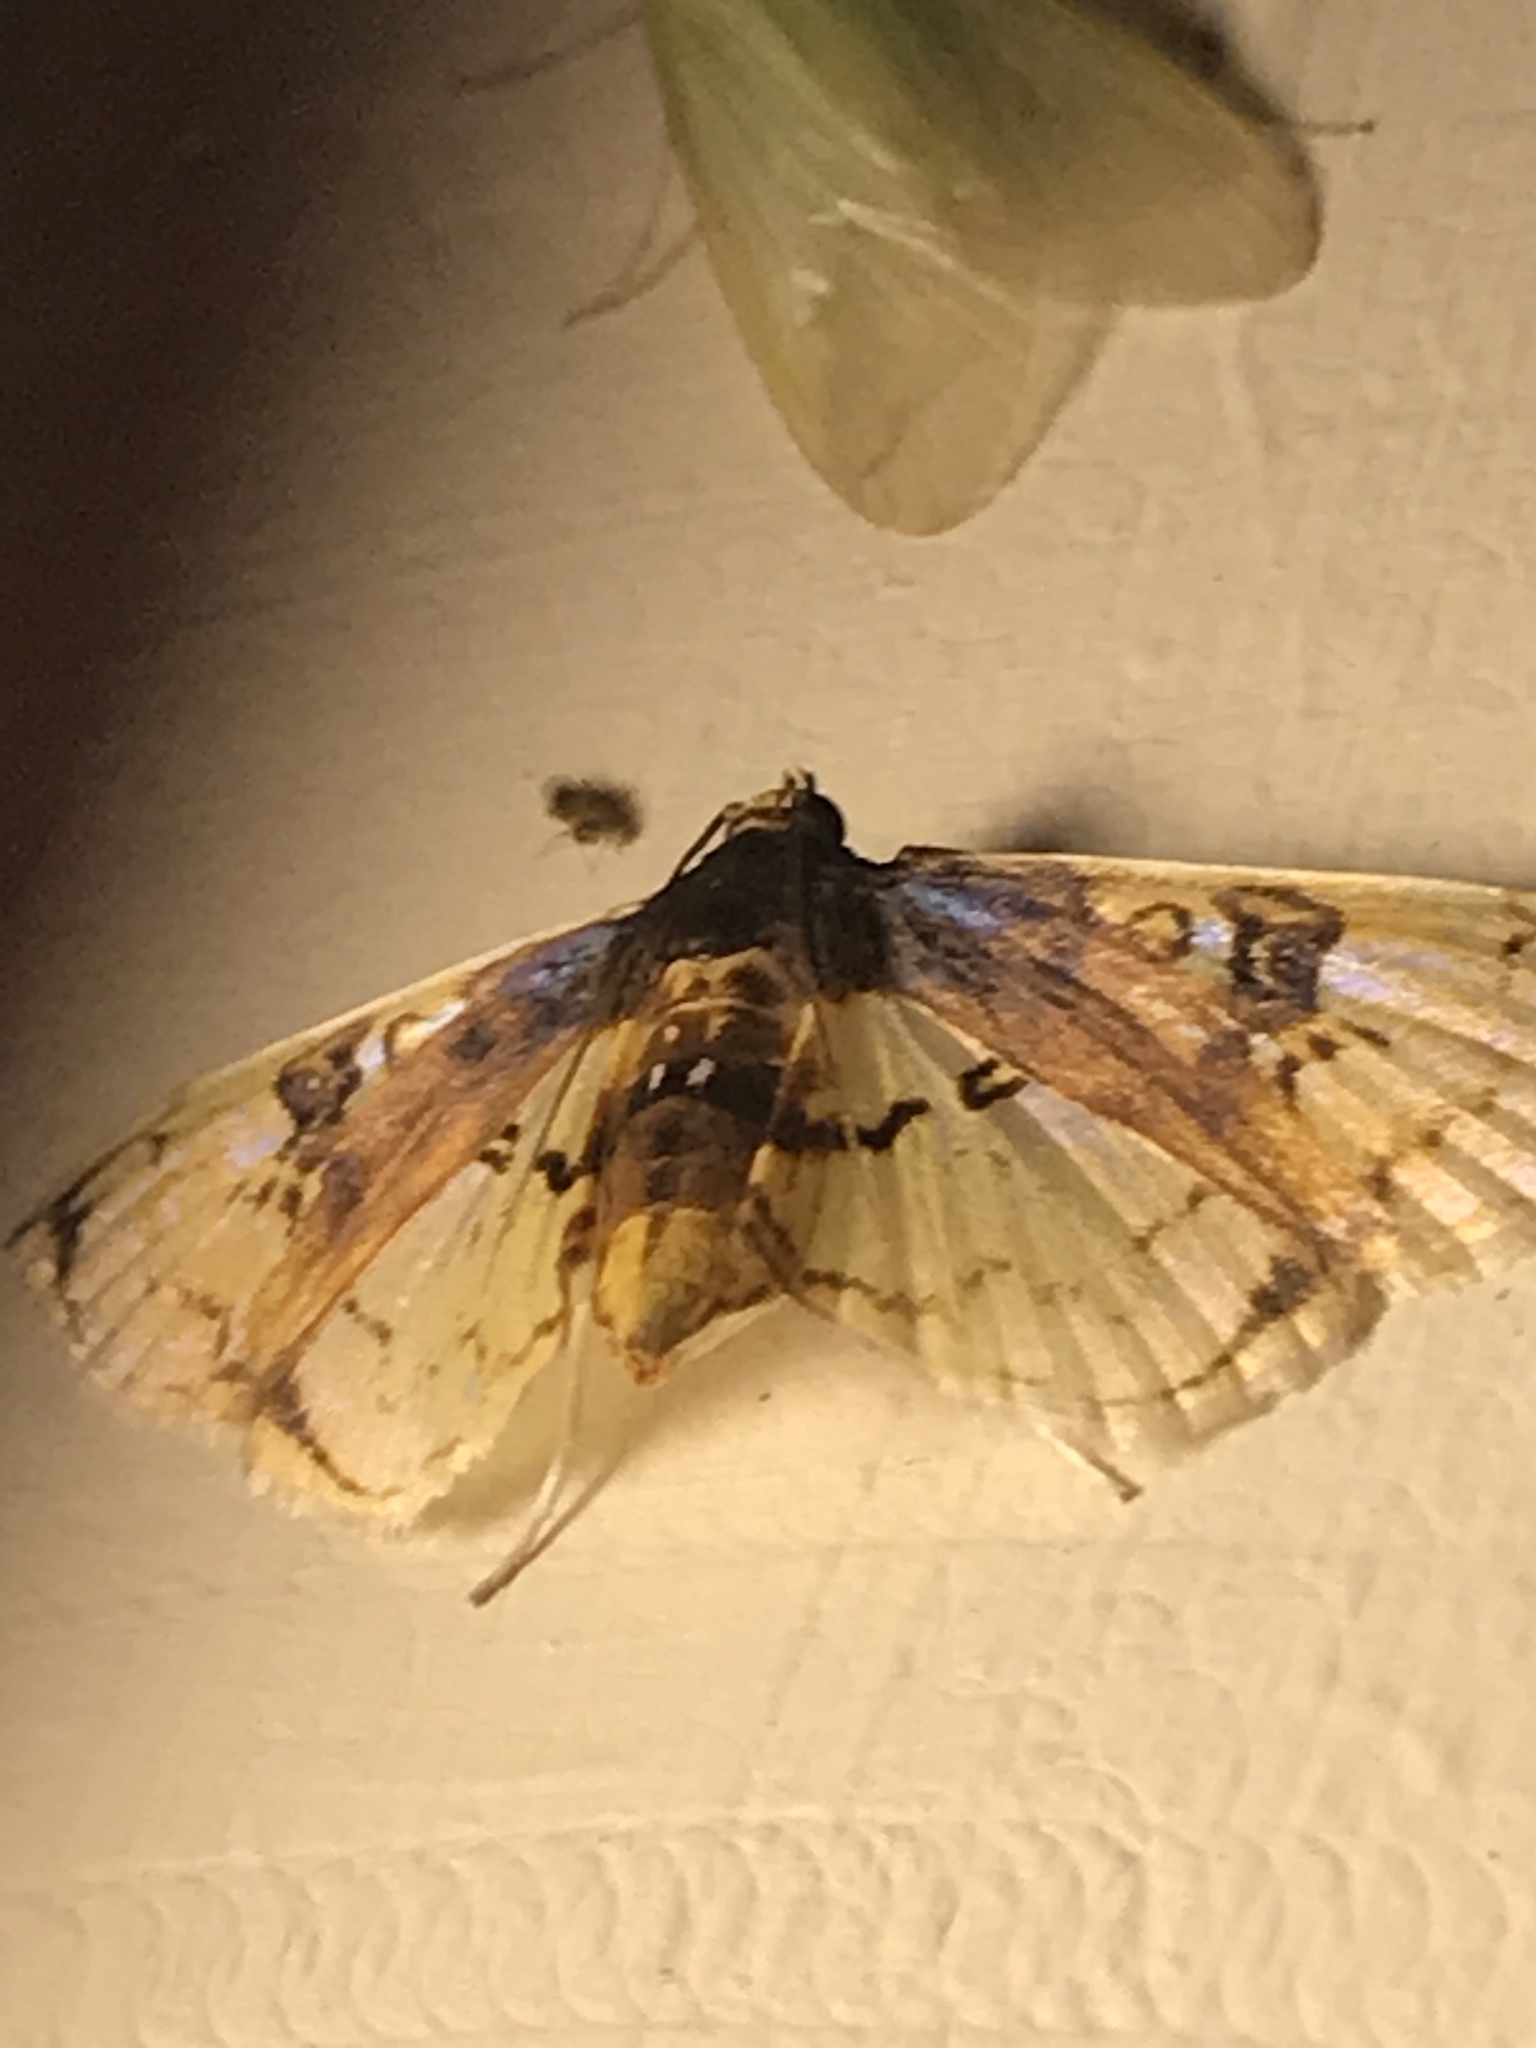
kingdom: Animalia
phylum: Arthropoda
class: Insecta
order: Lepidoptera
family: Crambidae
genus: Compacta
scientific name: Compacta hirtalis
